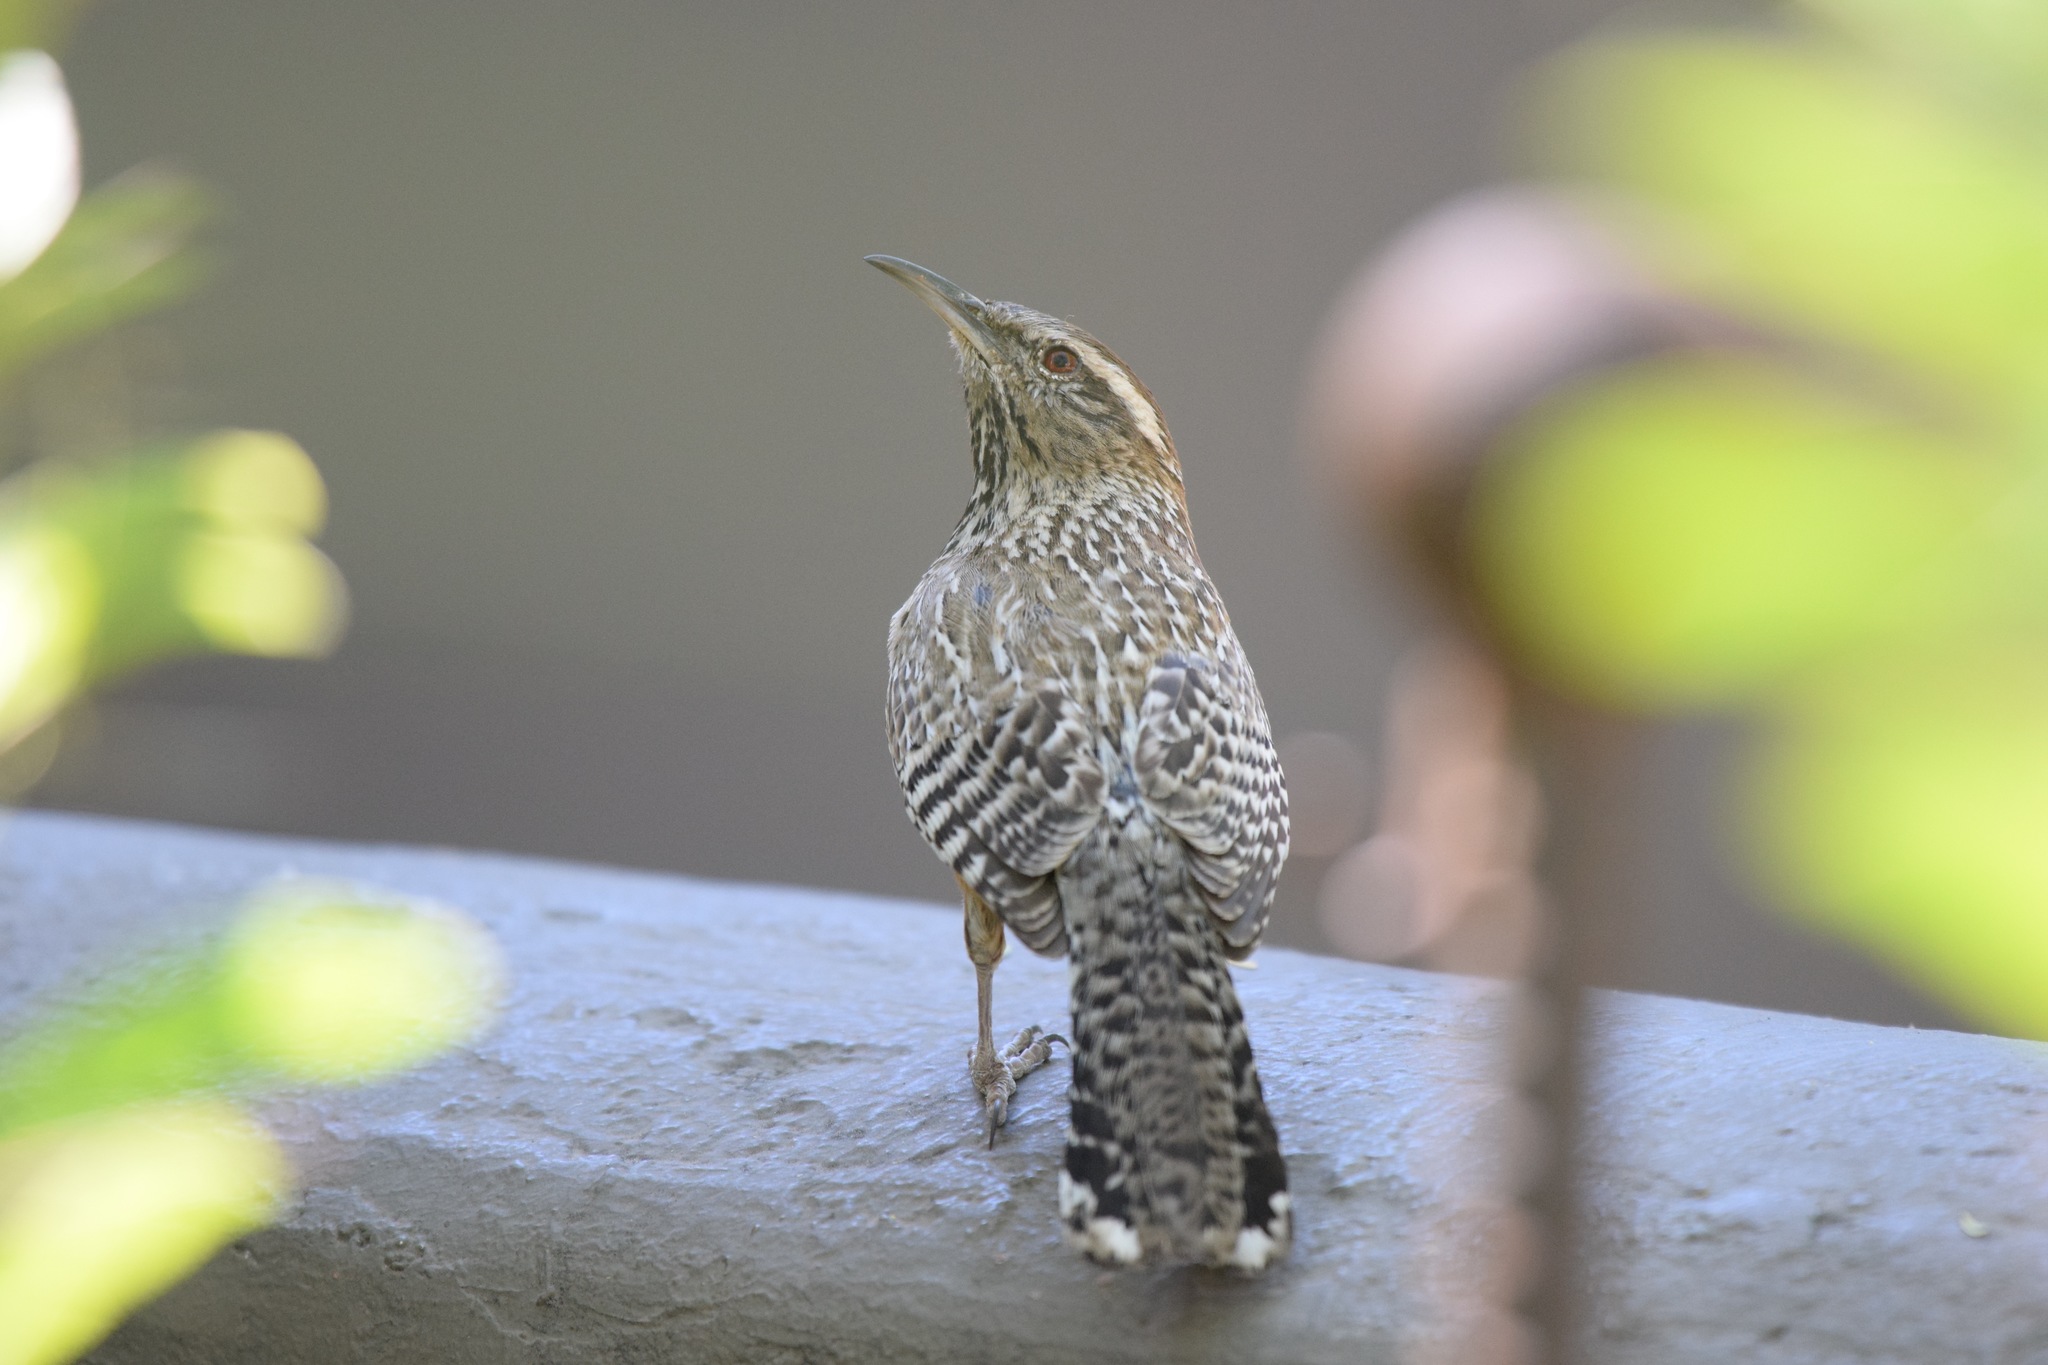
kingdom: Animalia
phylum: Chordata
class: Aves
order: Passeriformes
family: Troglodytidae
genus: Campylorhynchus
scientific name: Campylorhynchus brunneicapillus
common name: Cactus wren
